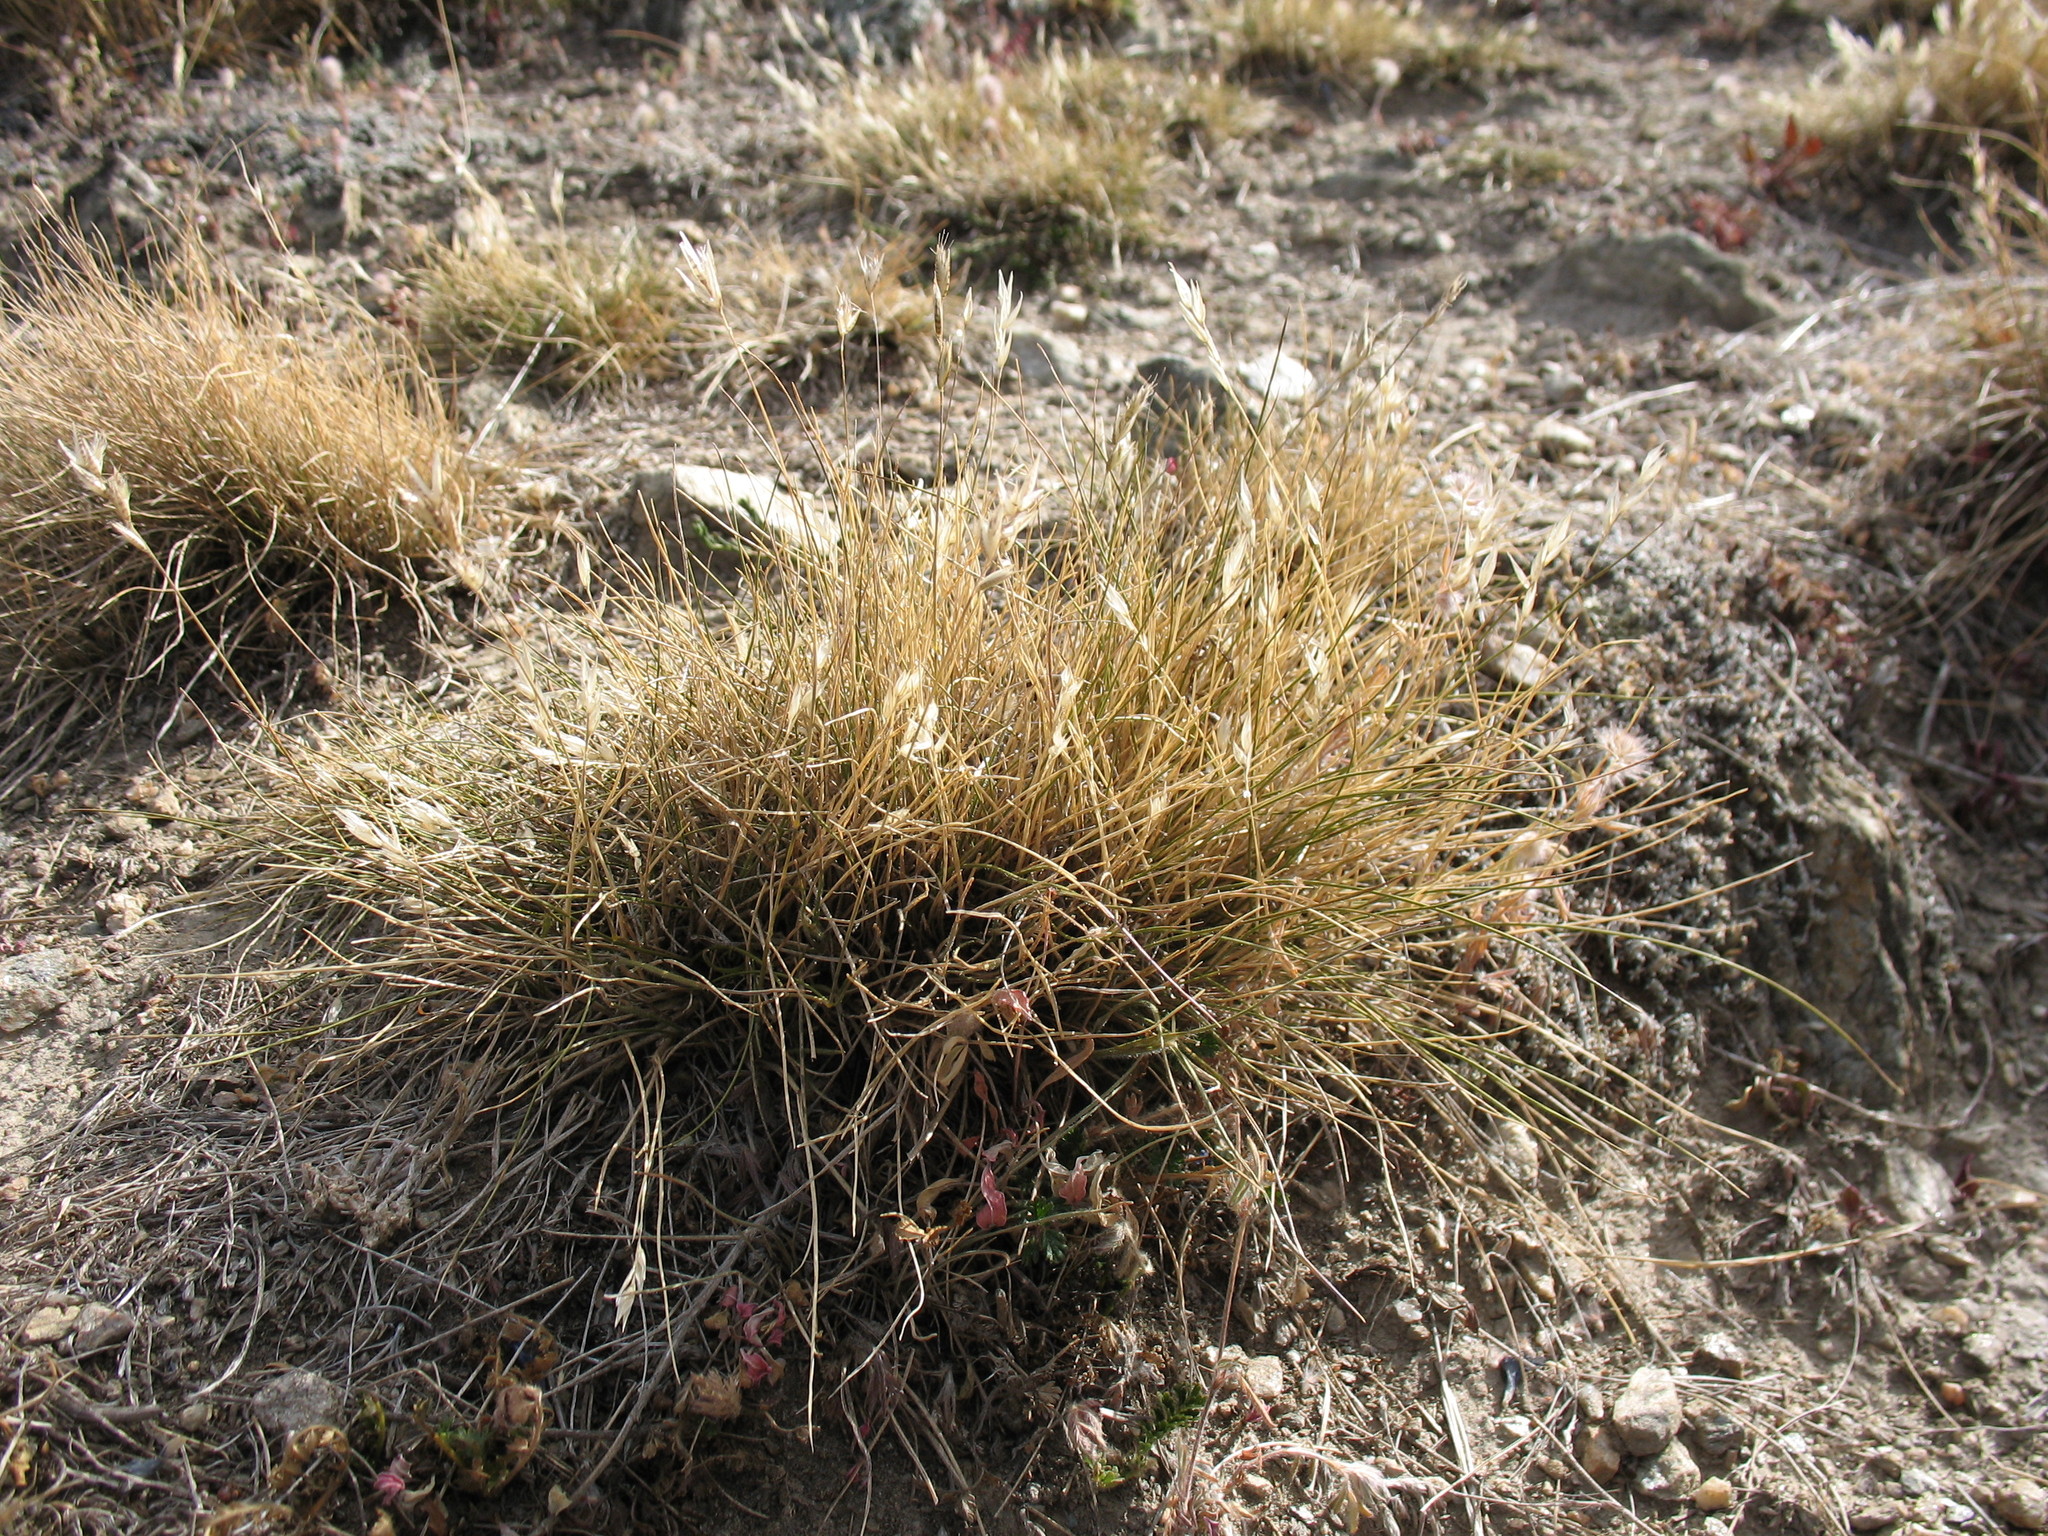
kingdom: Plantae
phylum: Tracheophyta
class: Liliopsida
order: Poales
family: Poaceae
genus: Rytidosperma
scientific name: Rytidosperma maculatum
